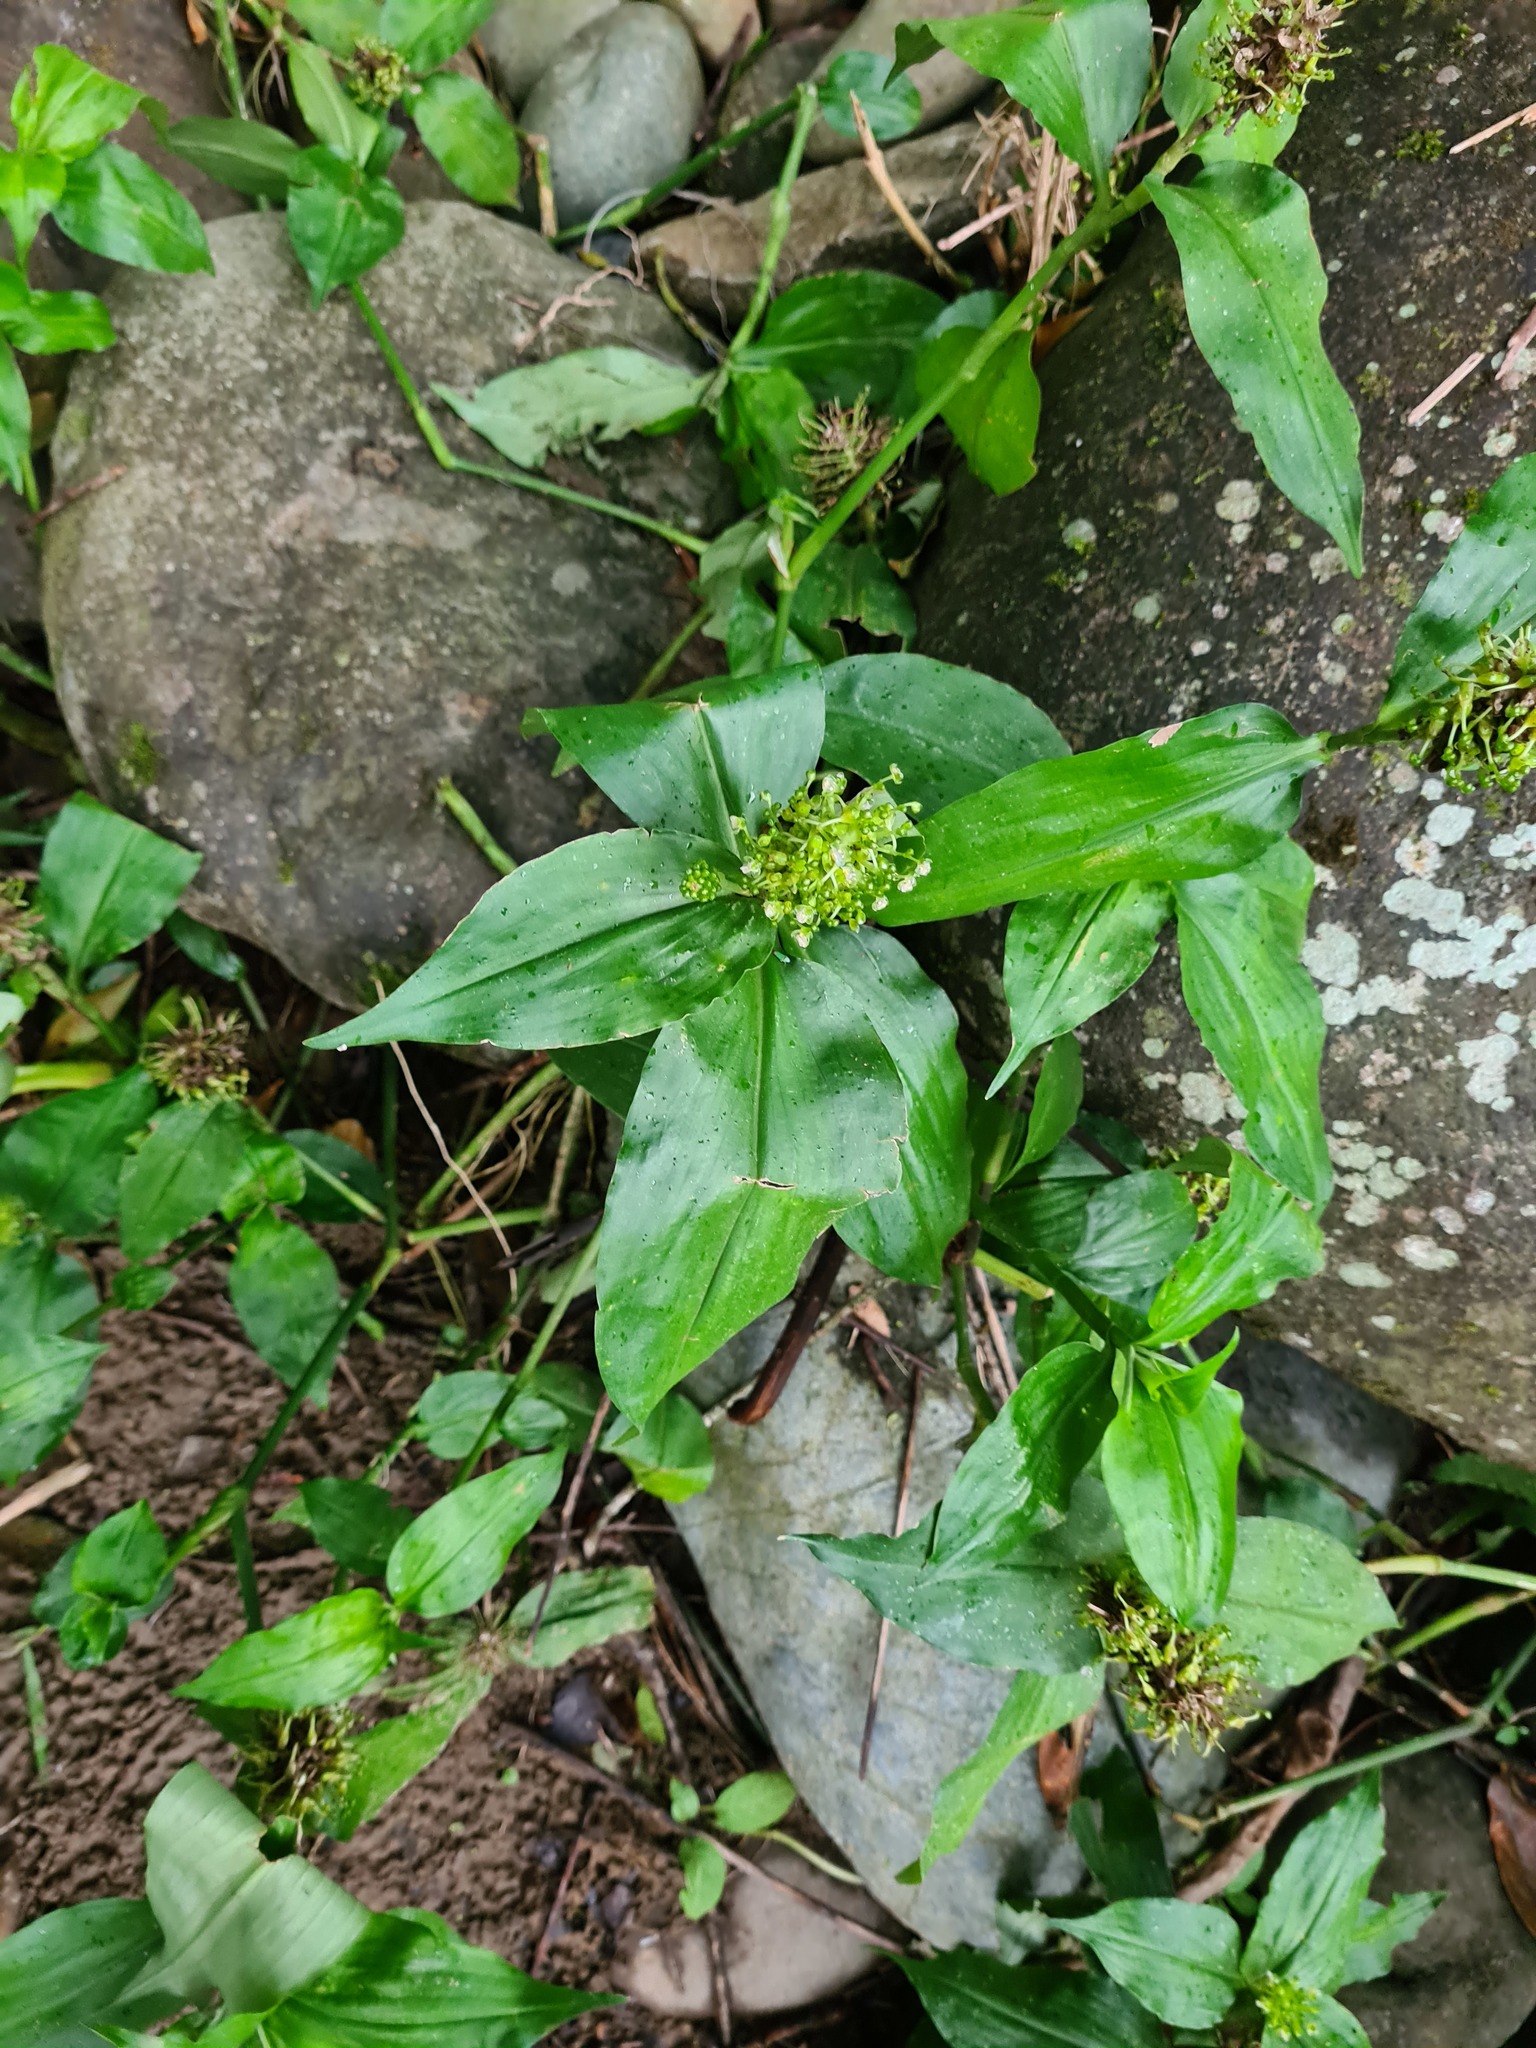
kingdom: Plantae
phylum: Tracheophyta
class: Liliopsida
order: Commelinales
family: Commelinaceae
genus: Aneilema
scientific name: Aneilema umbrosum
